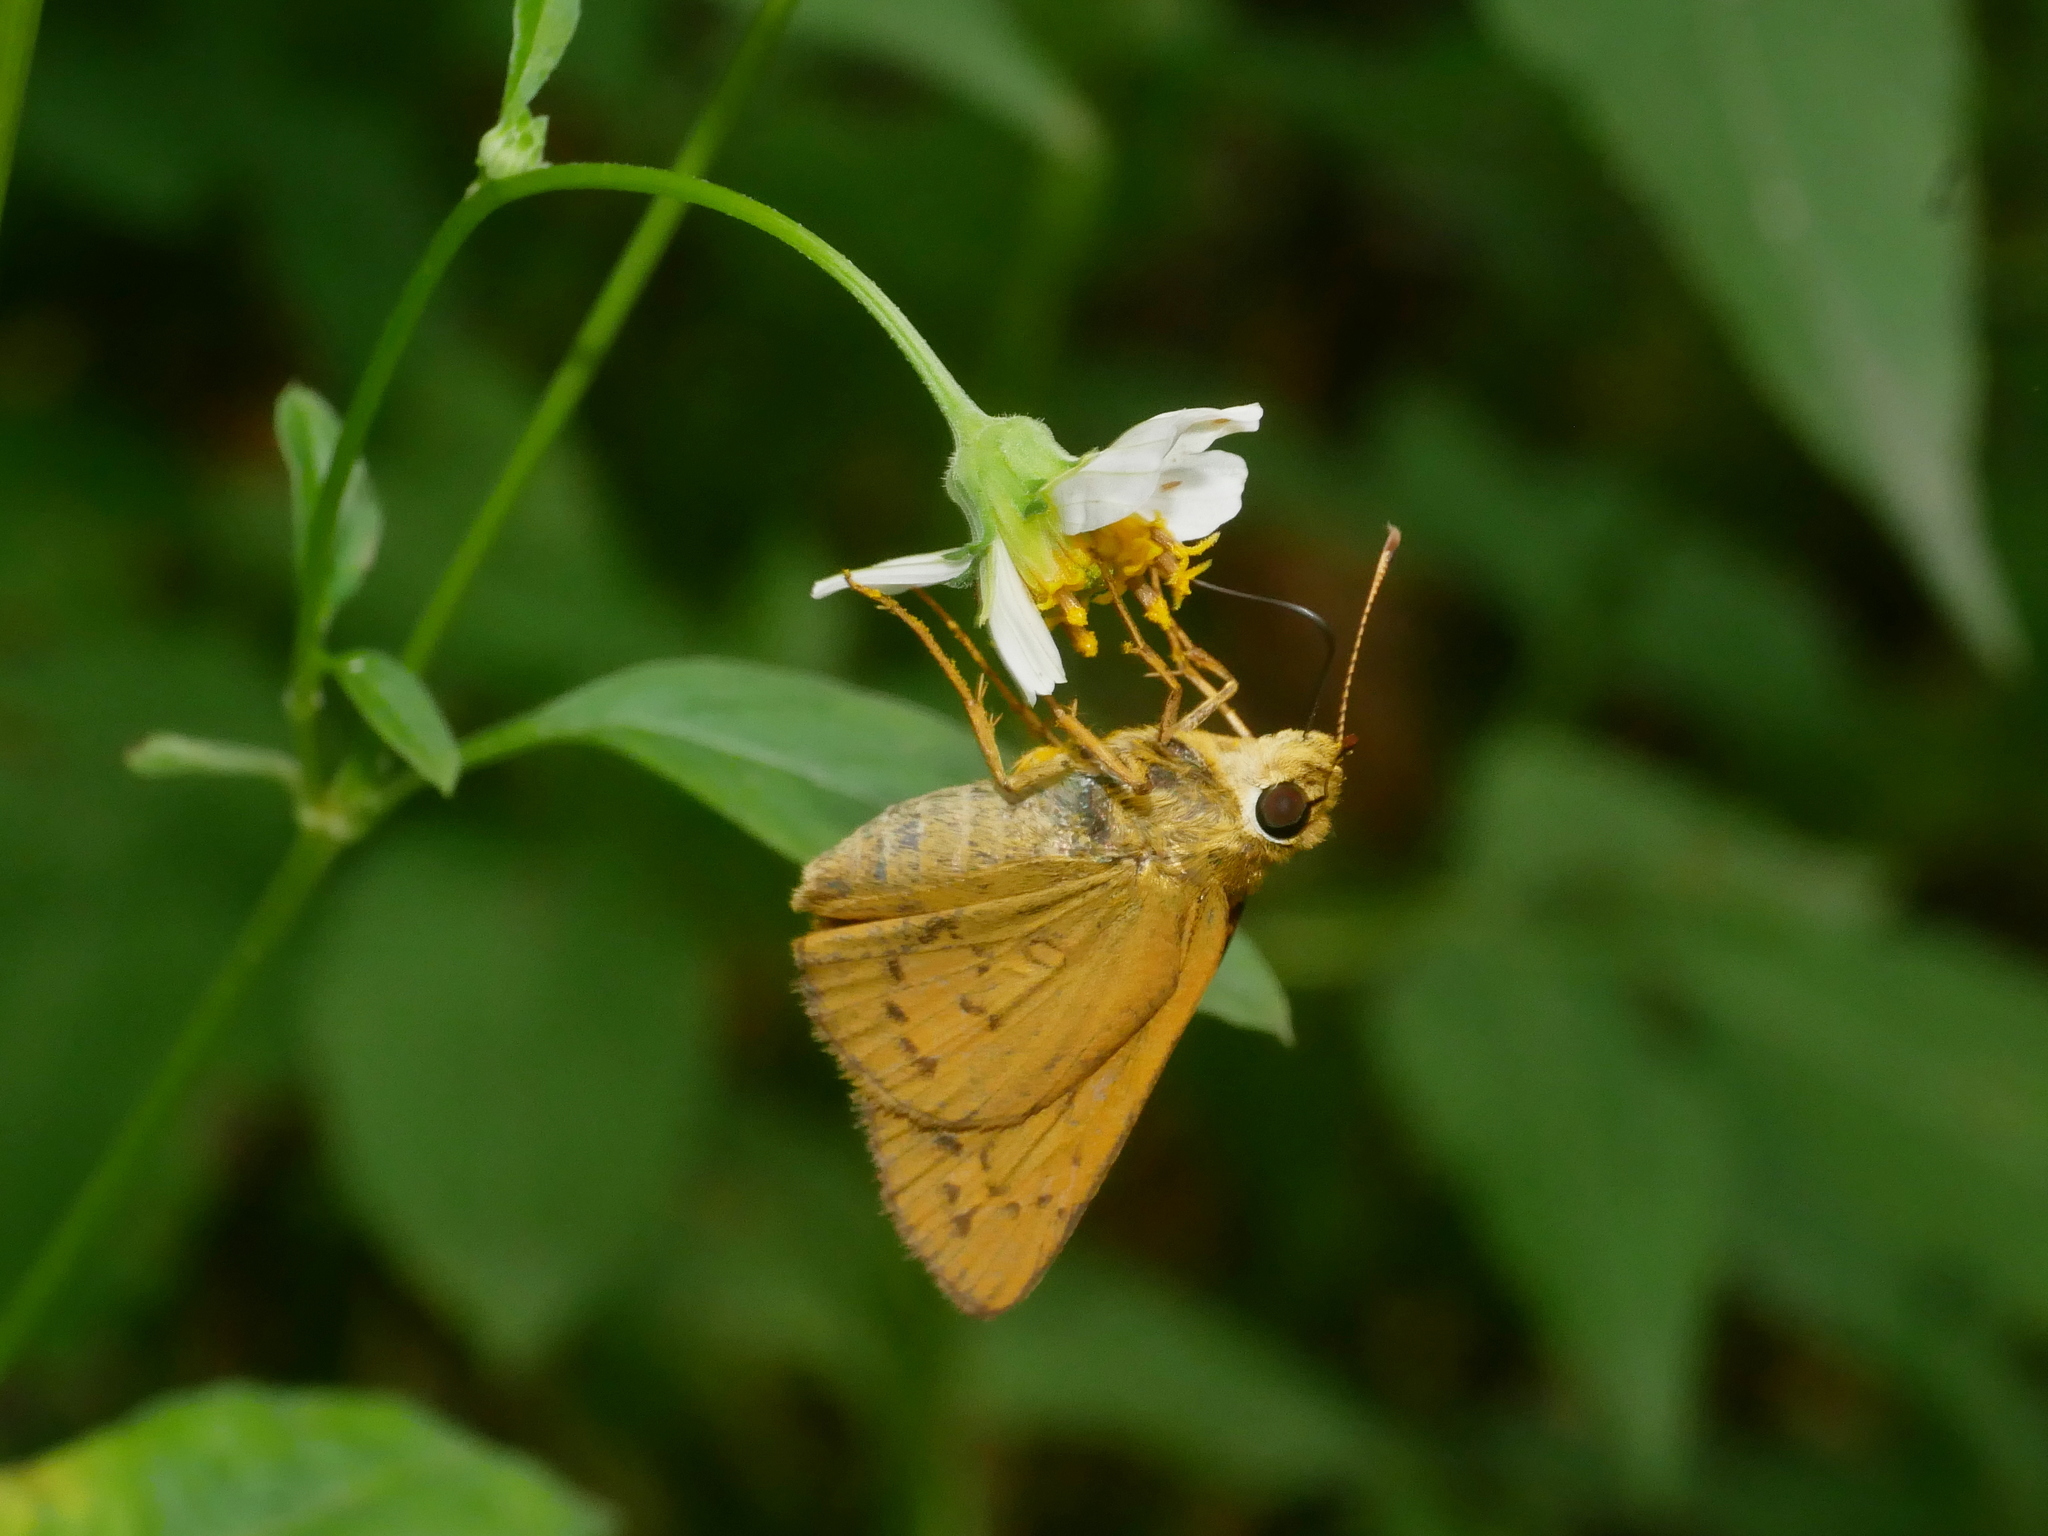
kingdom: Animalia
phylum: Arthropoda
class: Insecta
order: Lepidoptera
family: Hesperiidae
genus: Telicota
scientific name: Telicota bambusae
